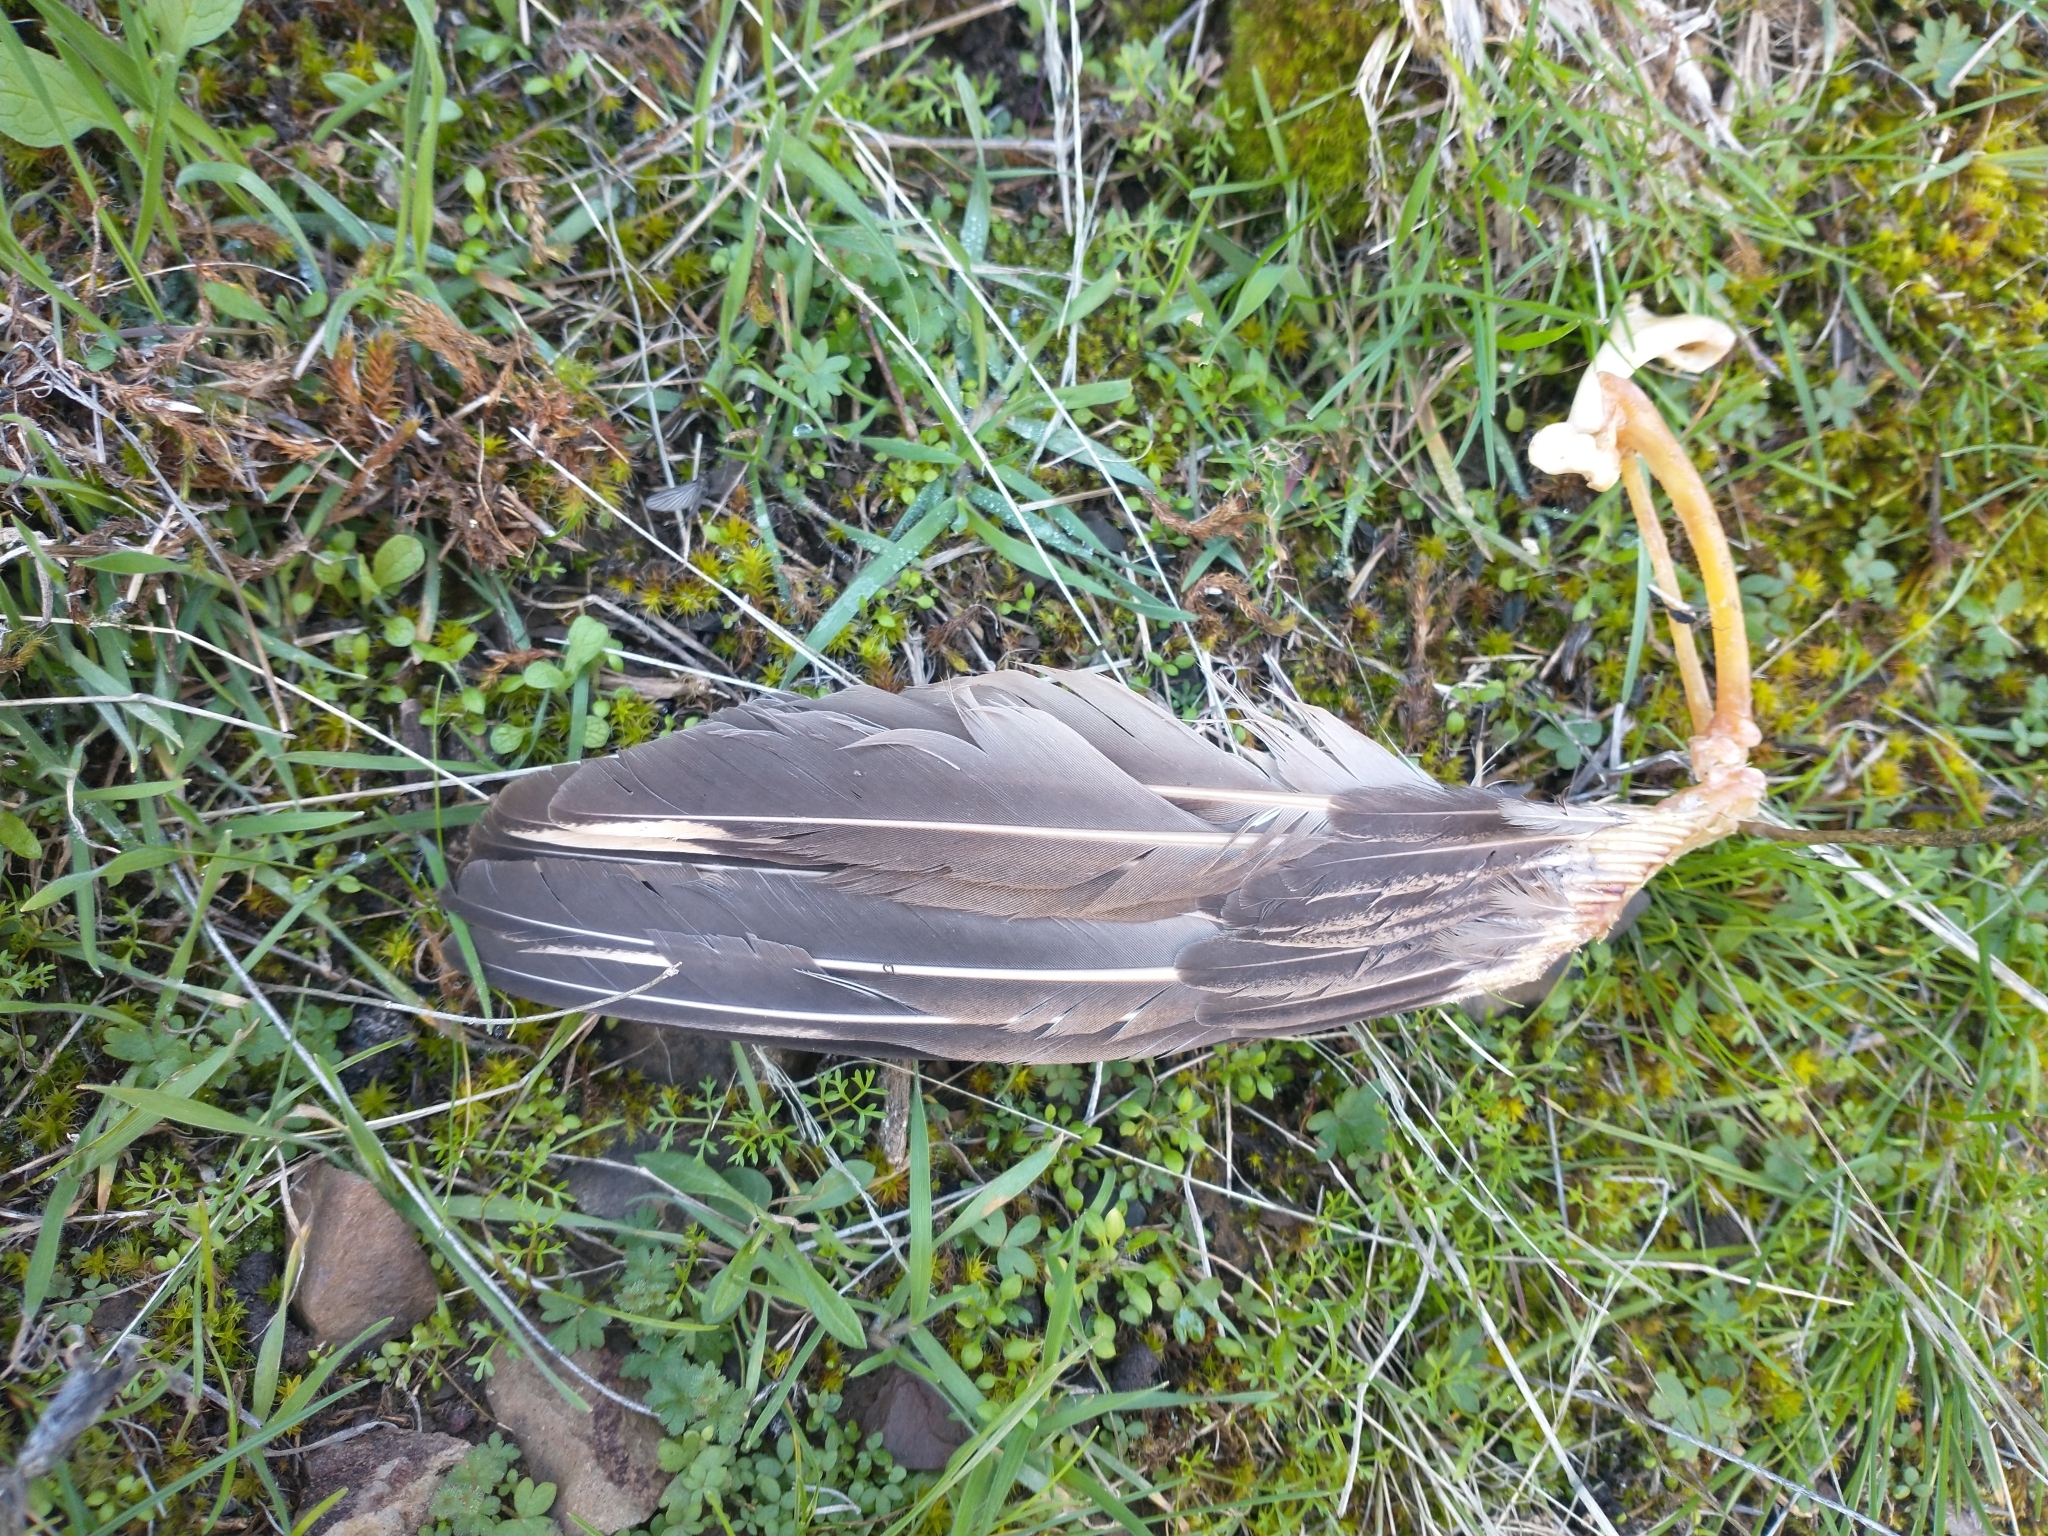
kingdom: Animalia
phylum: Chordata
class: Aves
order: Galliformes
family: Phasianidae
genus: Alectoris
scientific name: Alectoris chukar
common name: Chukar
